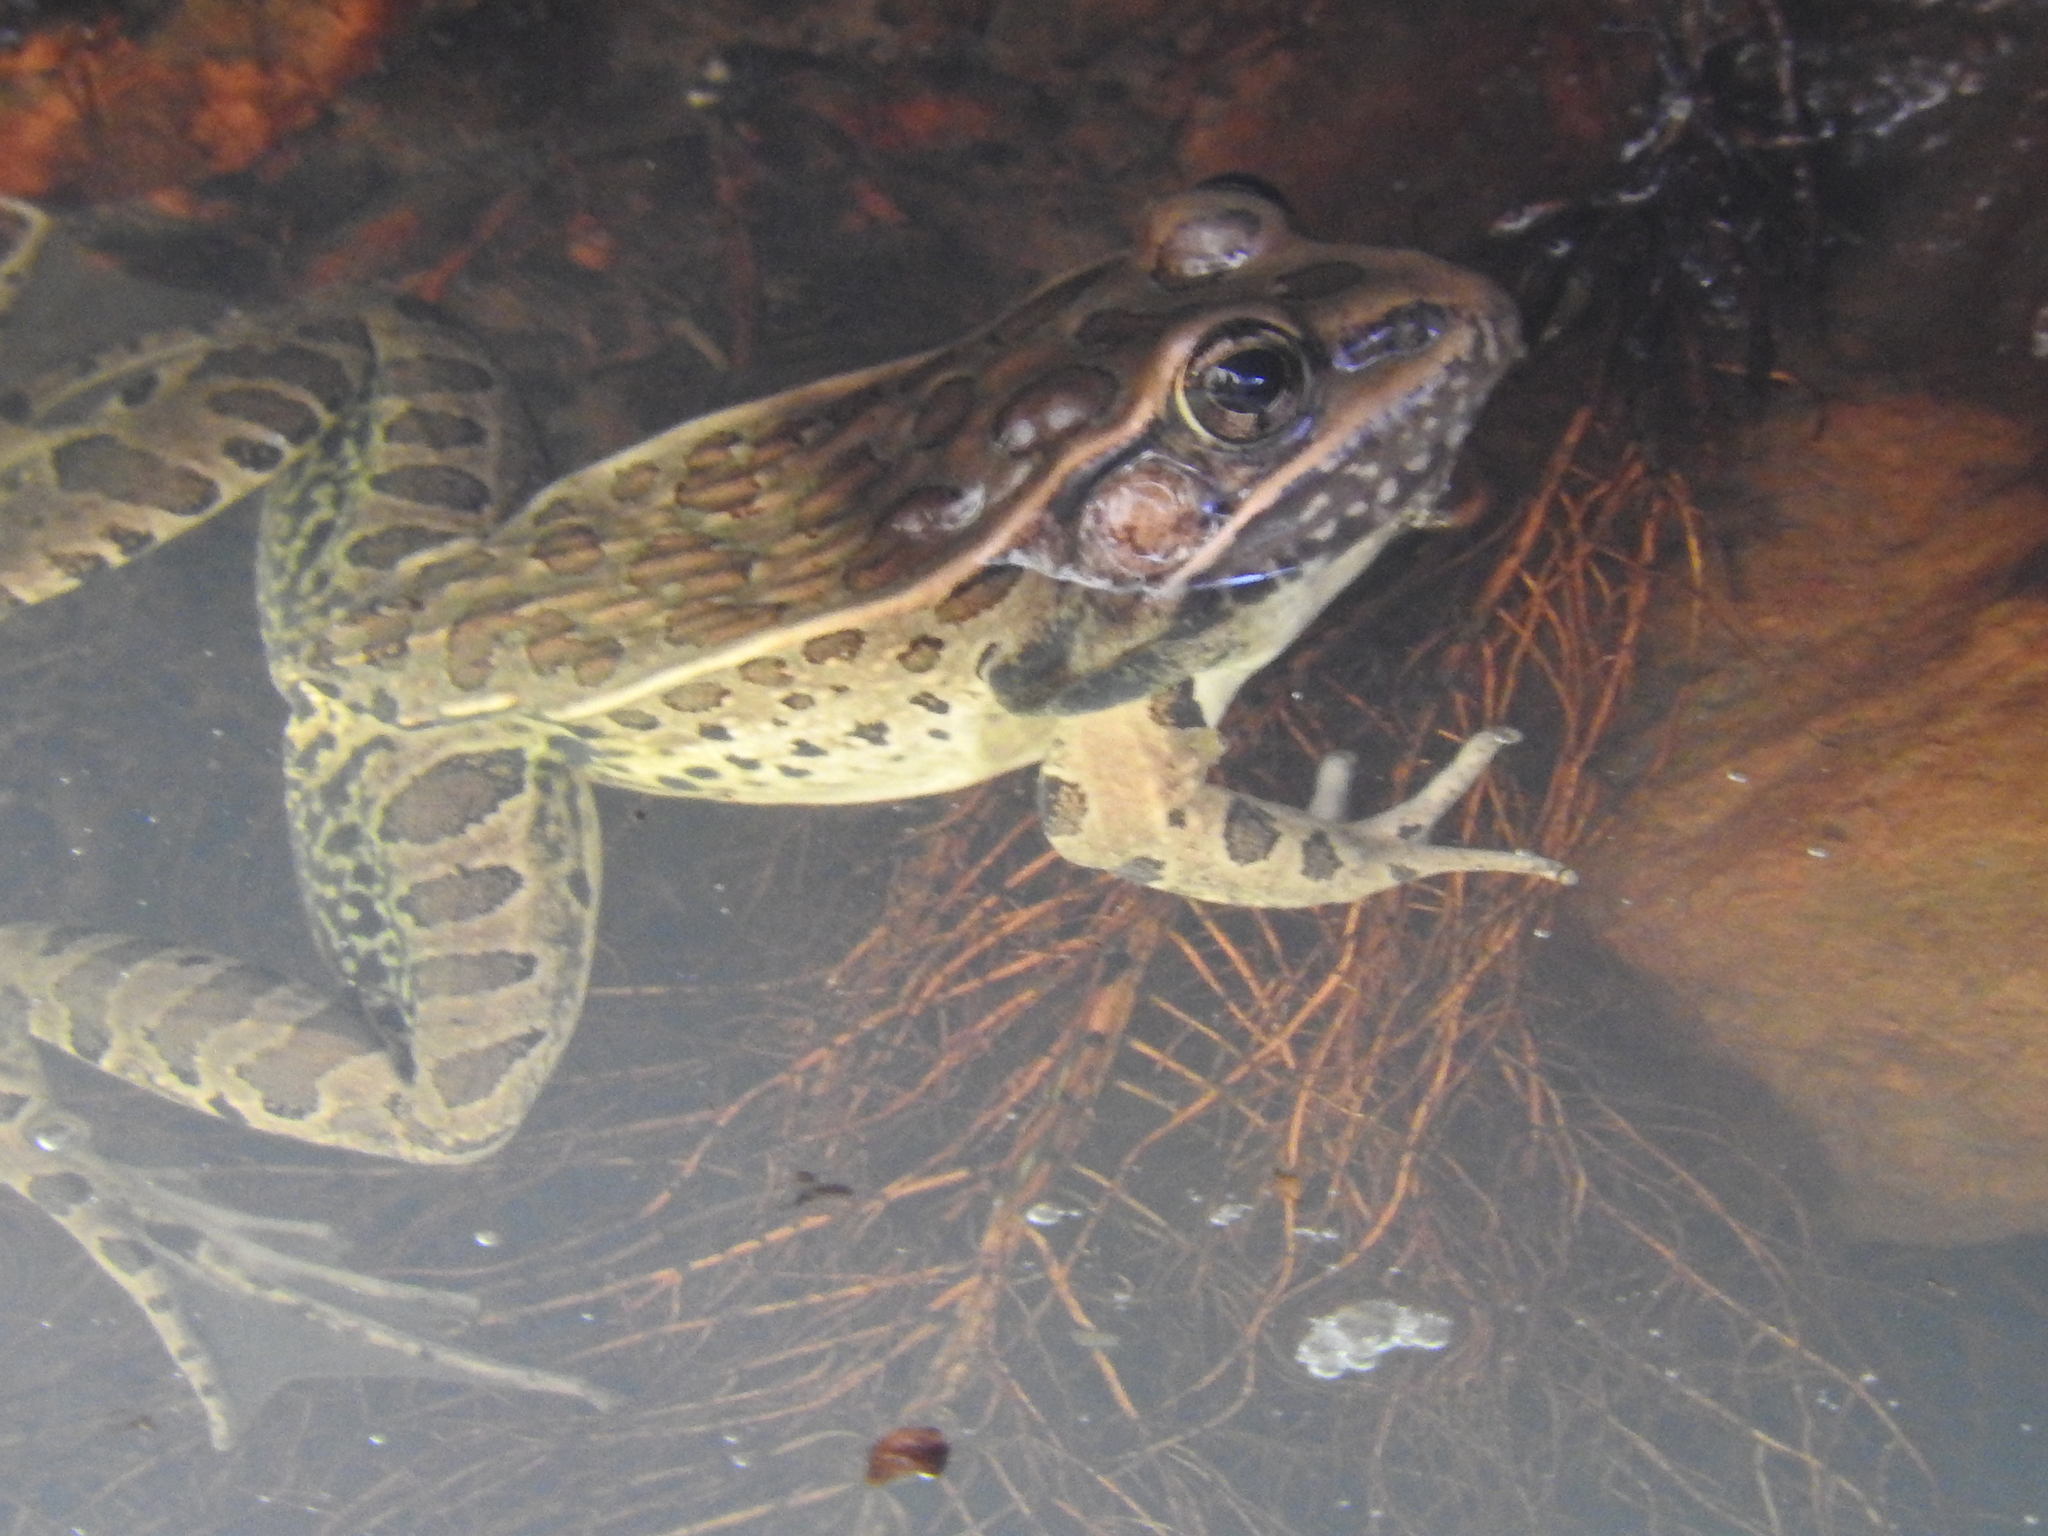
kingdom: Animalia
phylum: Chordata
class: Amphibia
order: Anura
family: Ranidae
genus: Lithobates
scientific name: Lithobates neovolcanicus
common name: Transverse volcanic leopard frog
